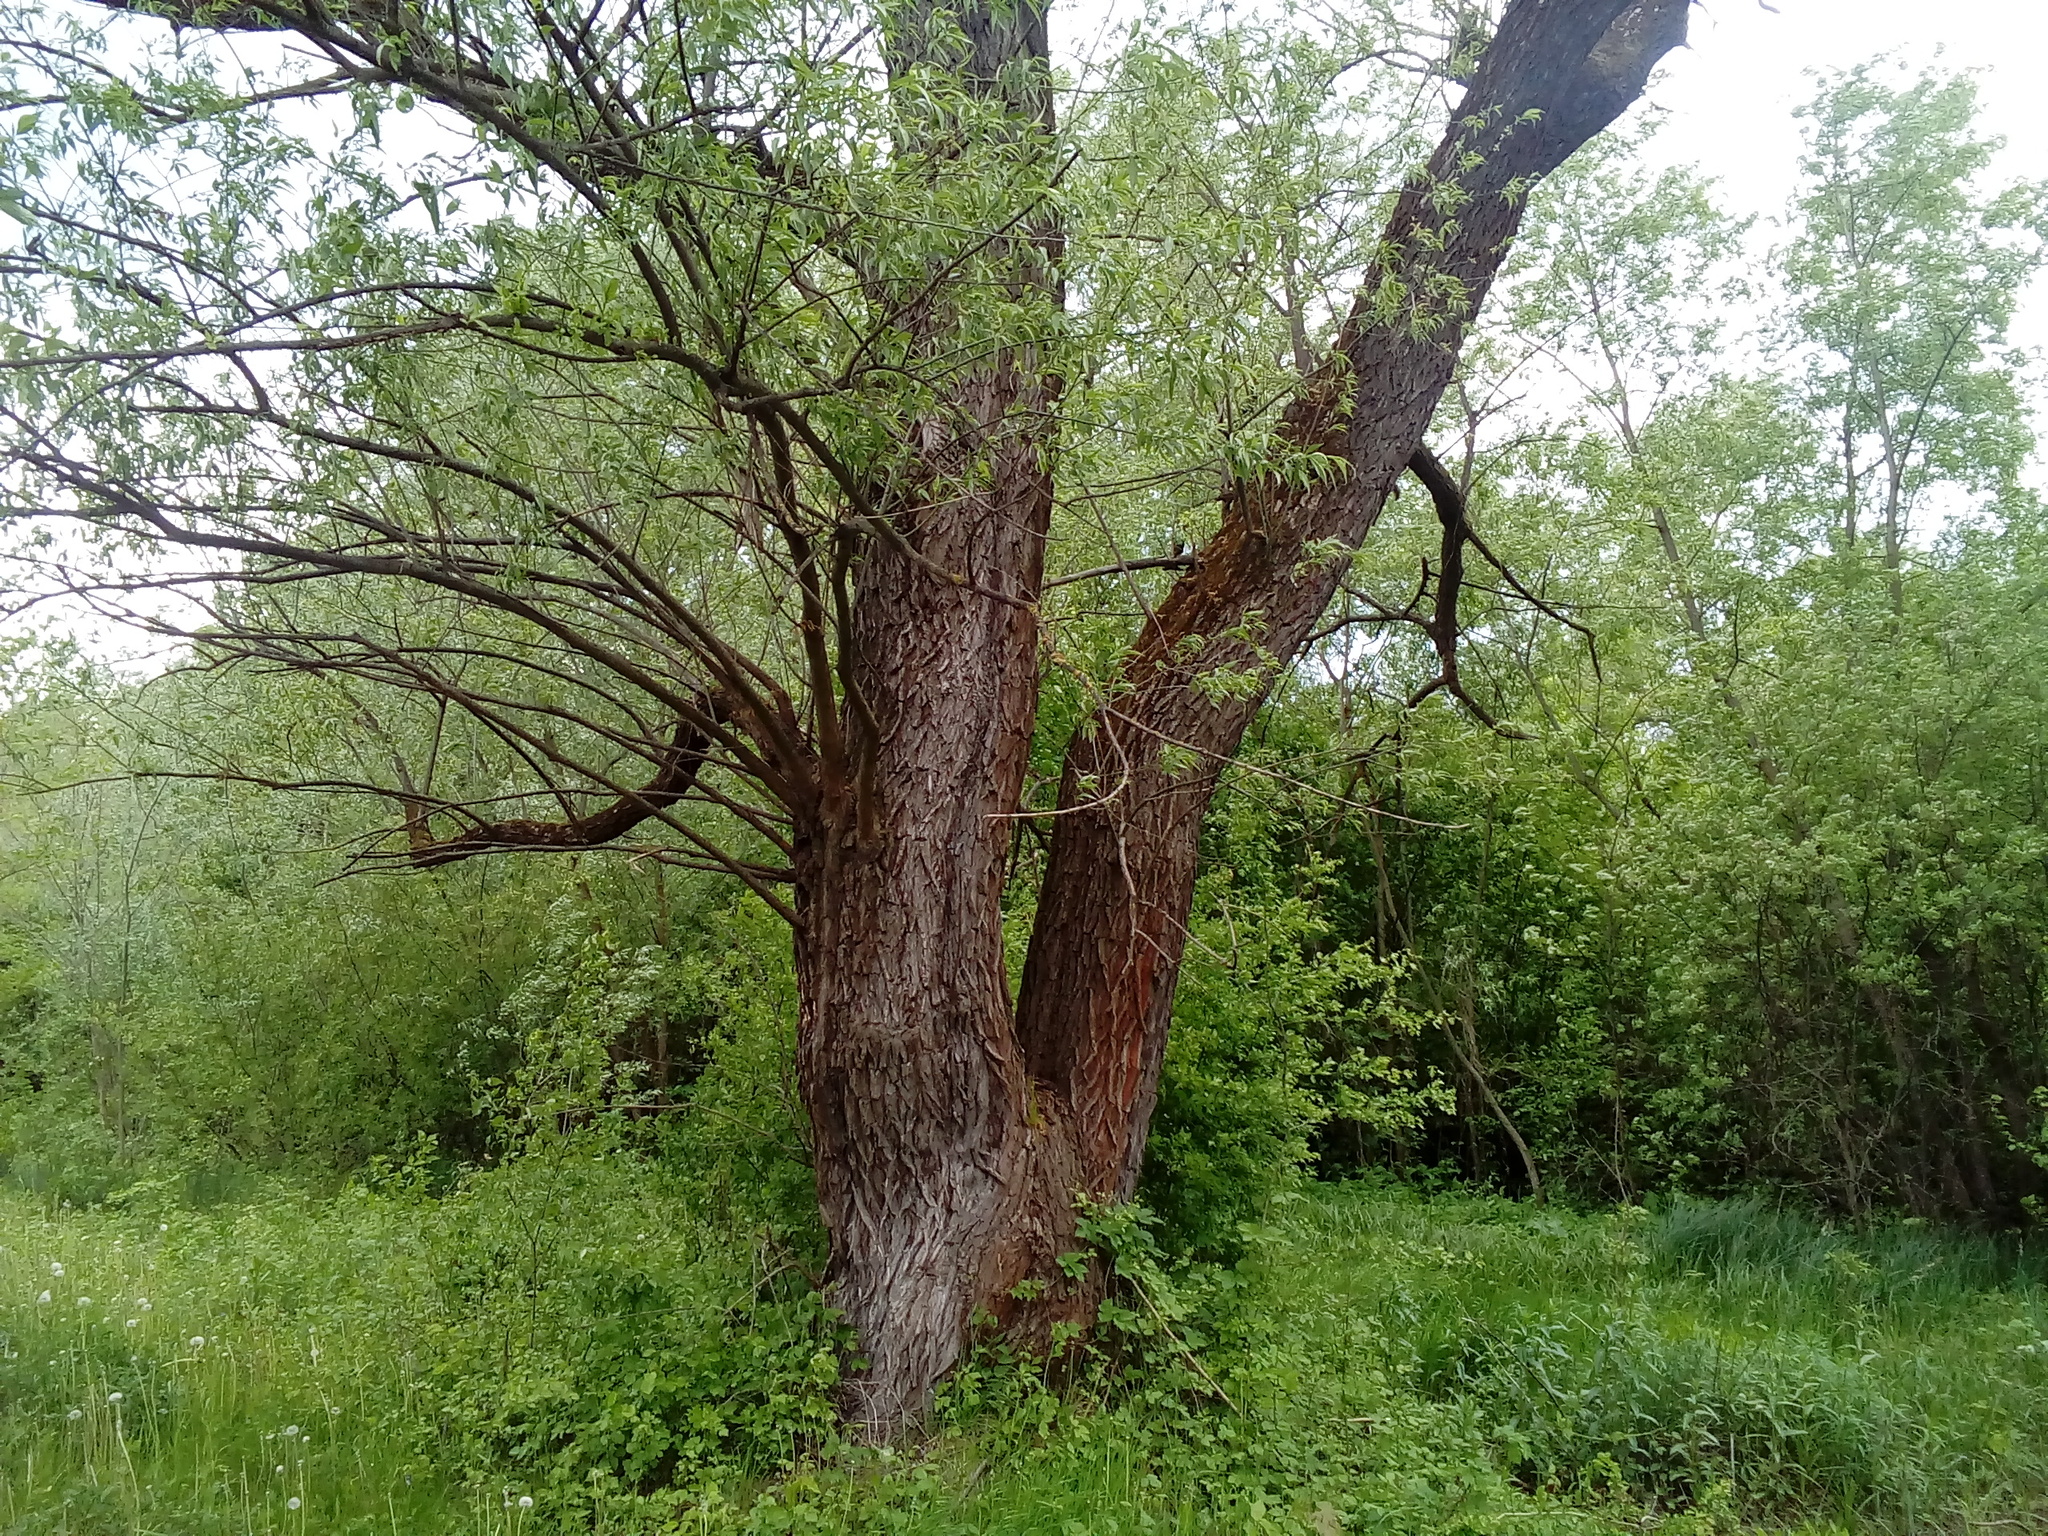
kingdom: Plantae
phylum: Tracheophyta
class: Magnoliopsida
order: Malpighiales
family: Salicaceae
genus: Salix
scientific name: Salix alba
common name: White willow
